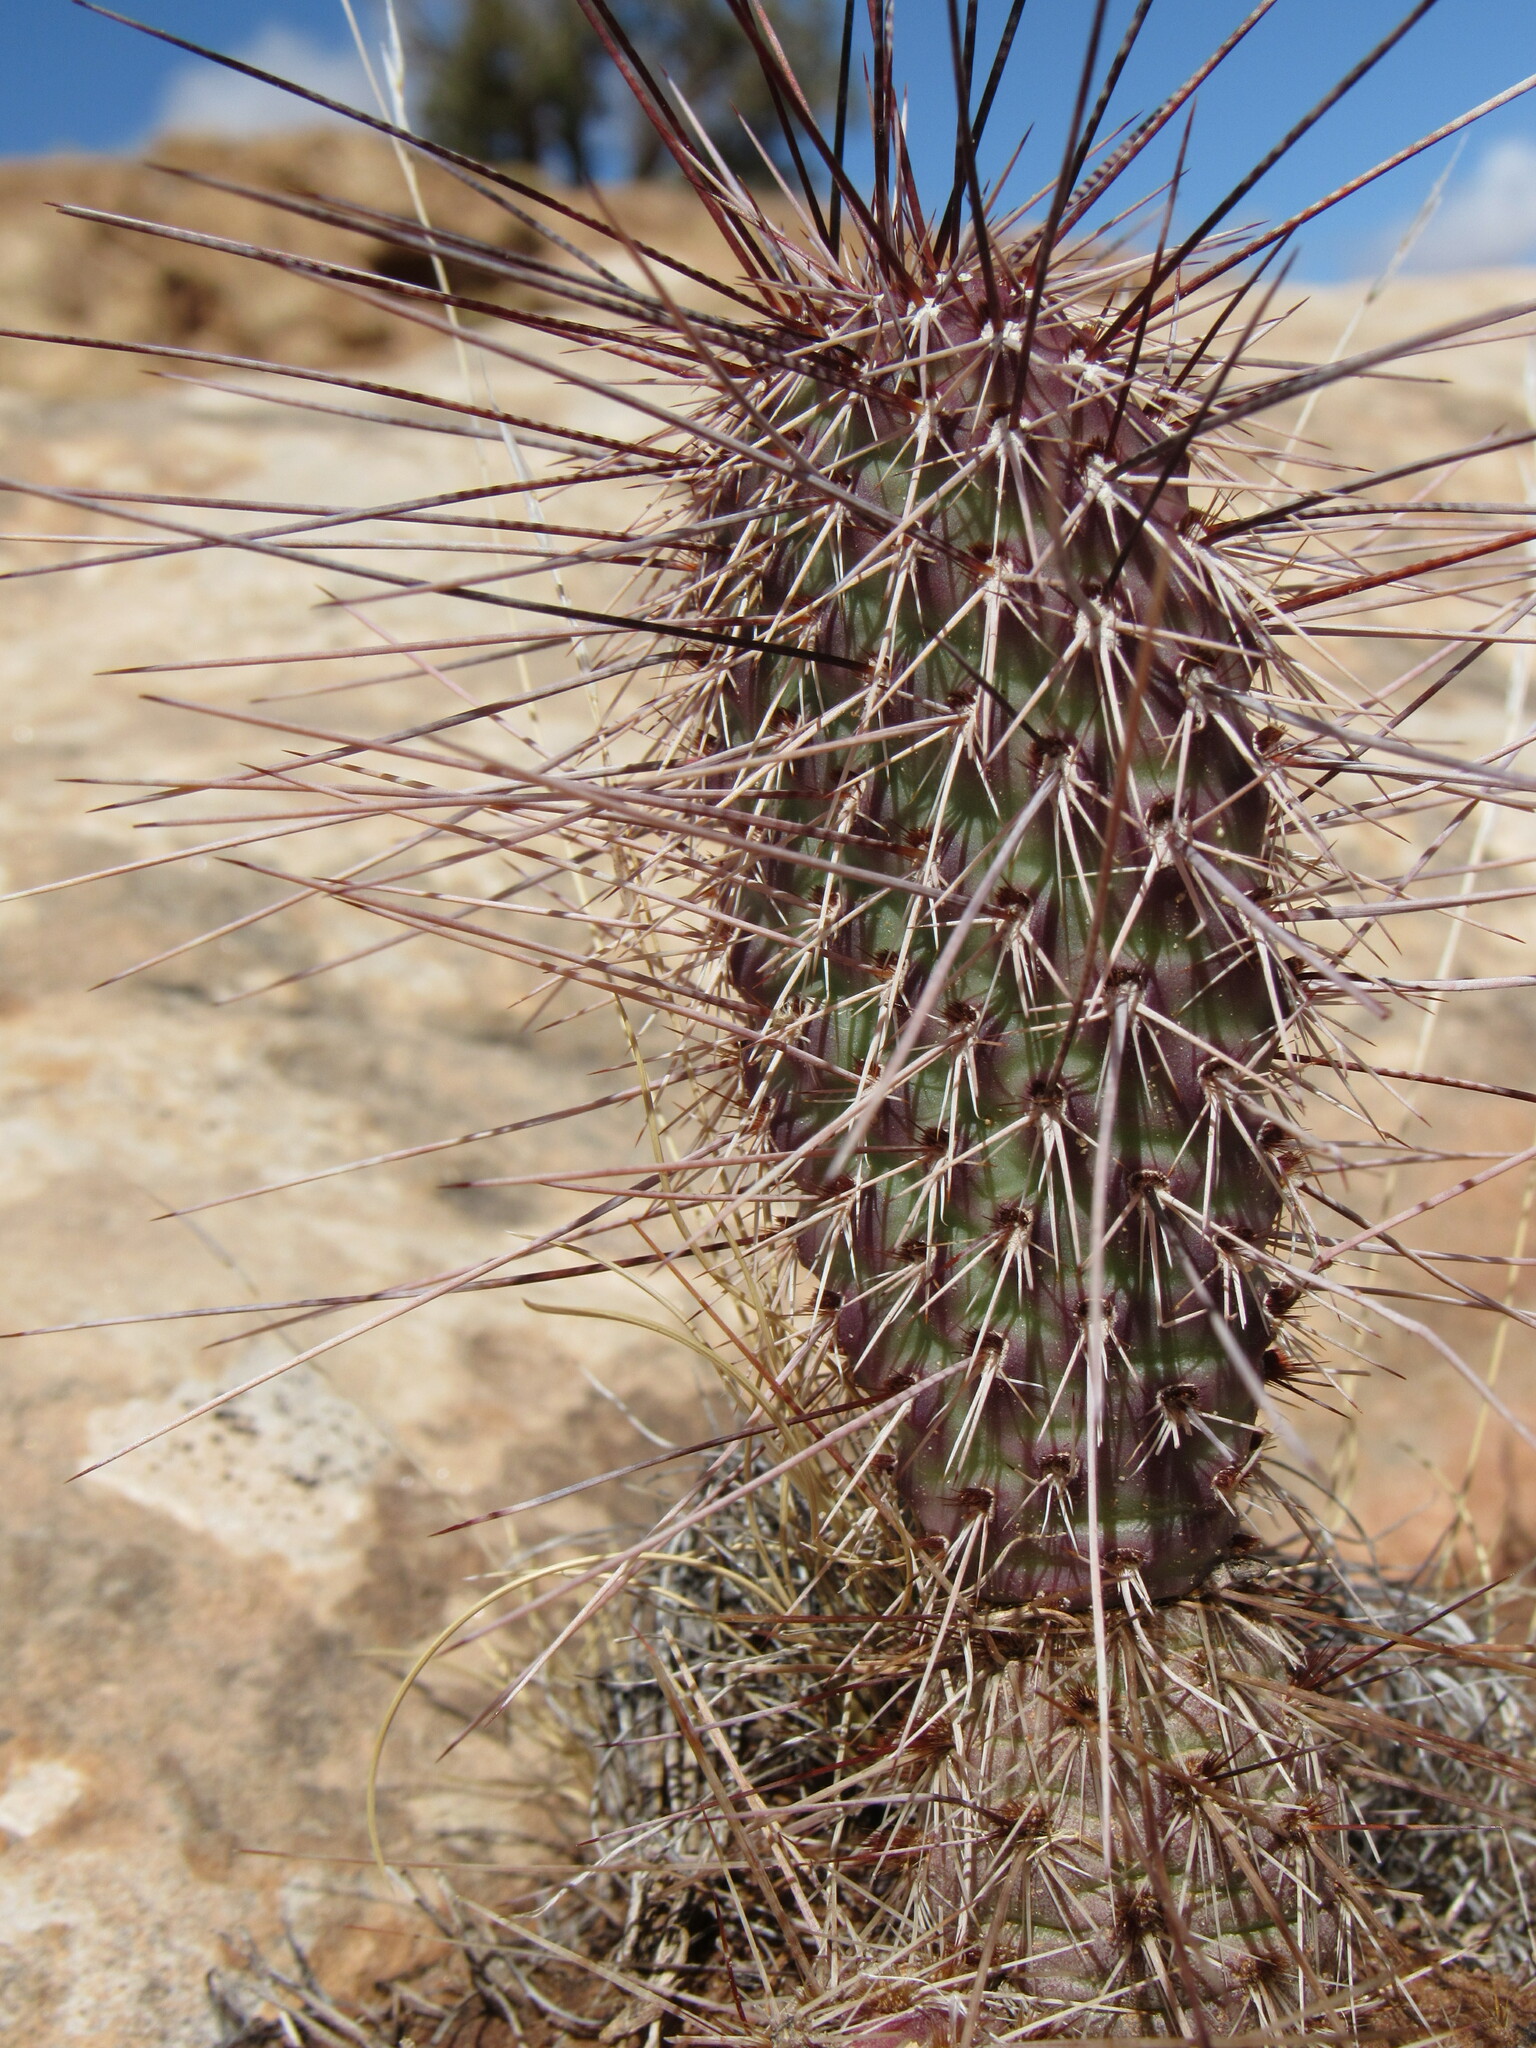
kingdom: Plantae
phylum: Tracheophyta
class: Magnoliopsida
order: Caryophyllales
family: Cactaceae
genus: Opuntia
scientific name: Opuntia polyacantha
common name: Plains prickly-pear
